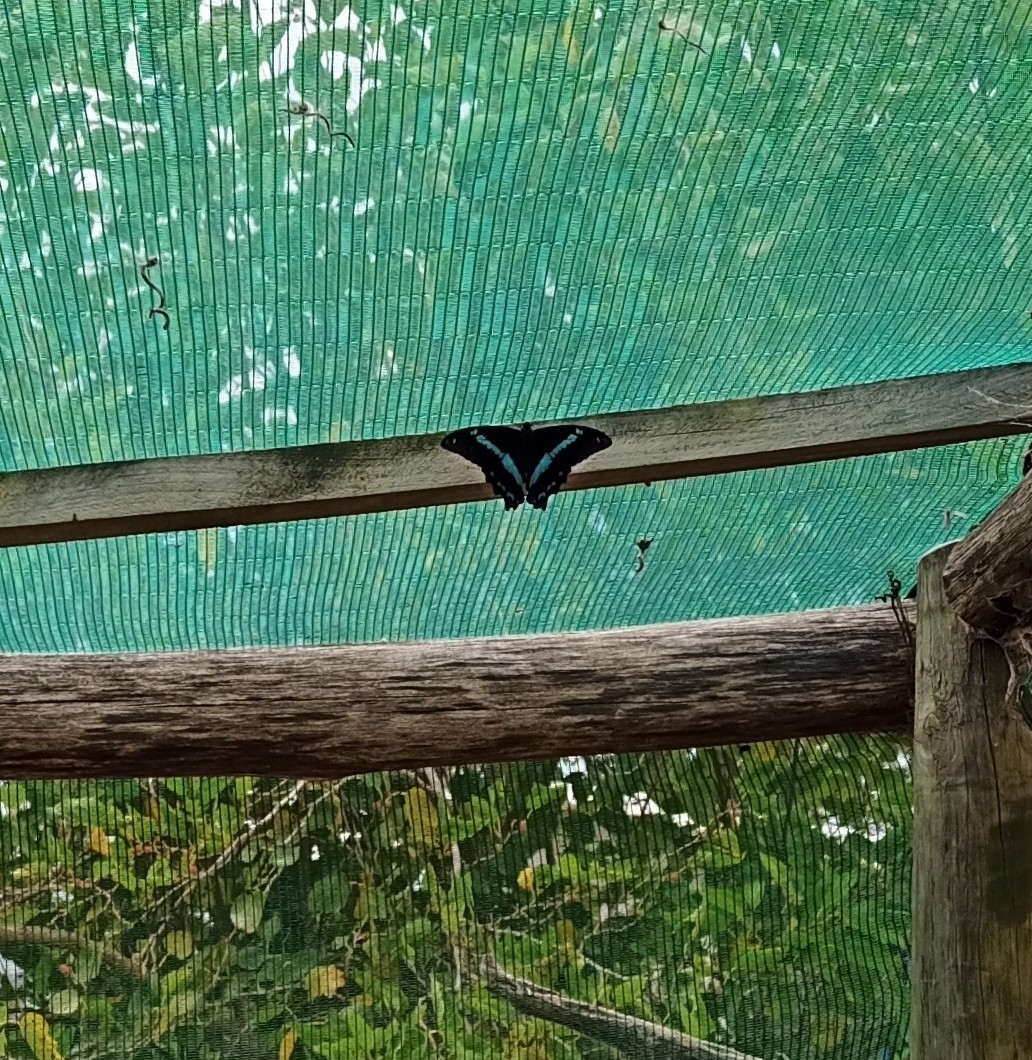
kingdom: Animalia
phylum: Arthropoda
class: Insecta
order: Lepidoptera
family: Papilionidae
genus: Papilio
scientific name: Papilio nireus
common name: Greenbanded swallowtail
